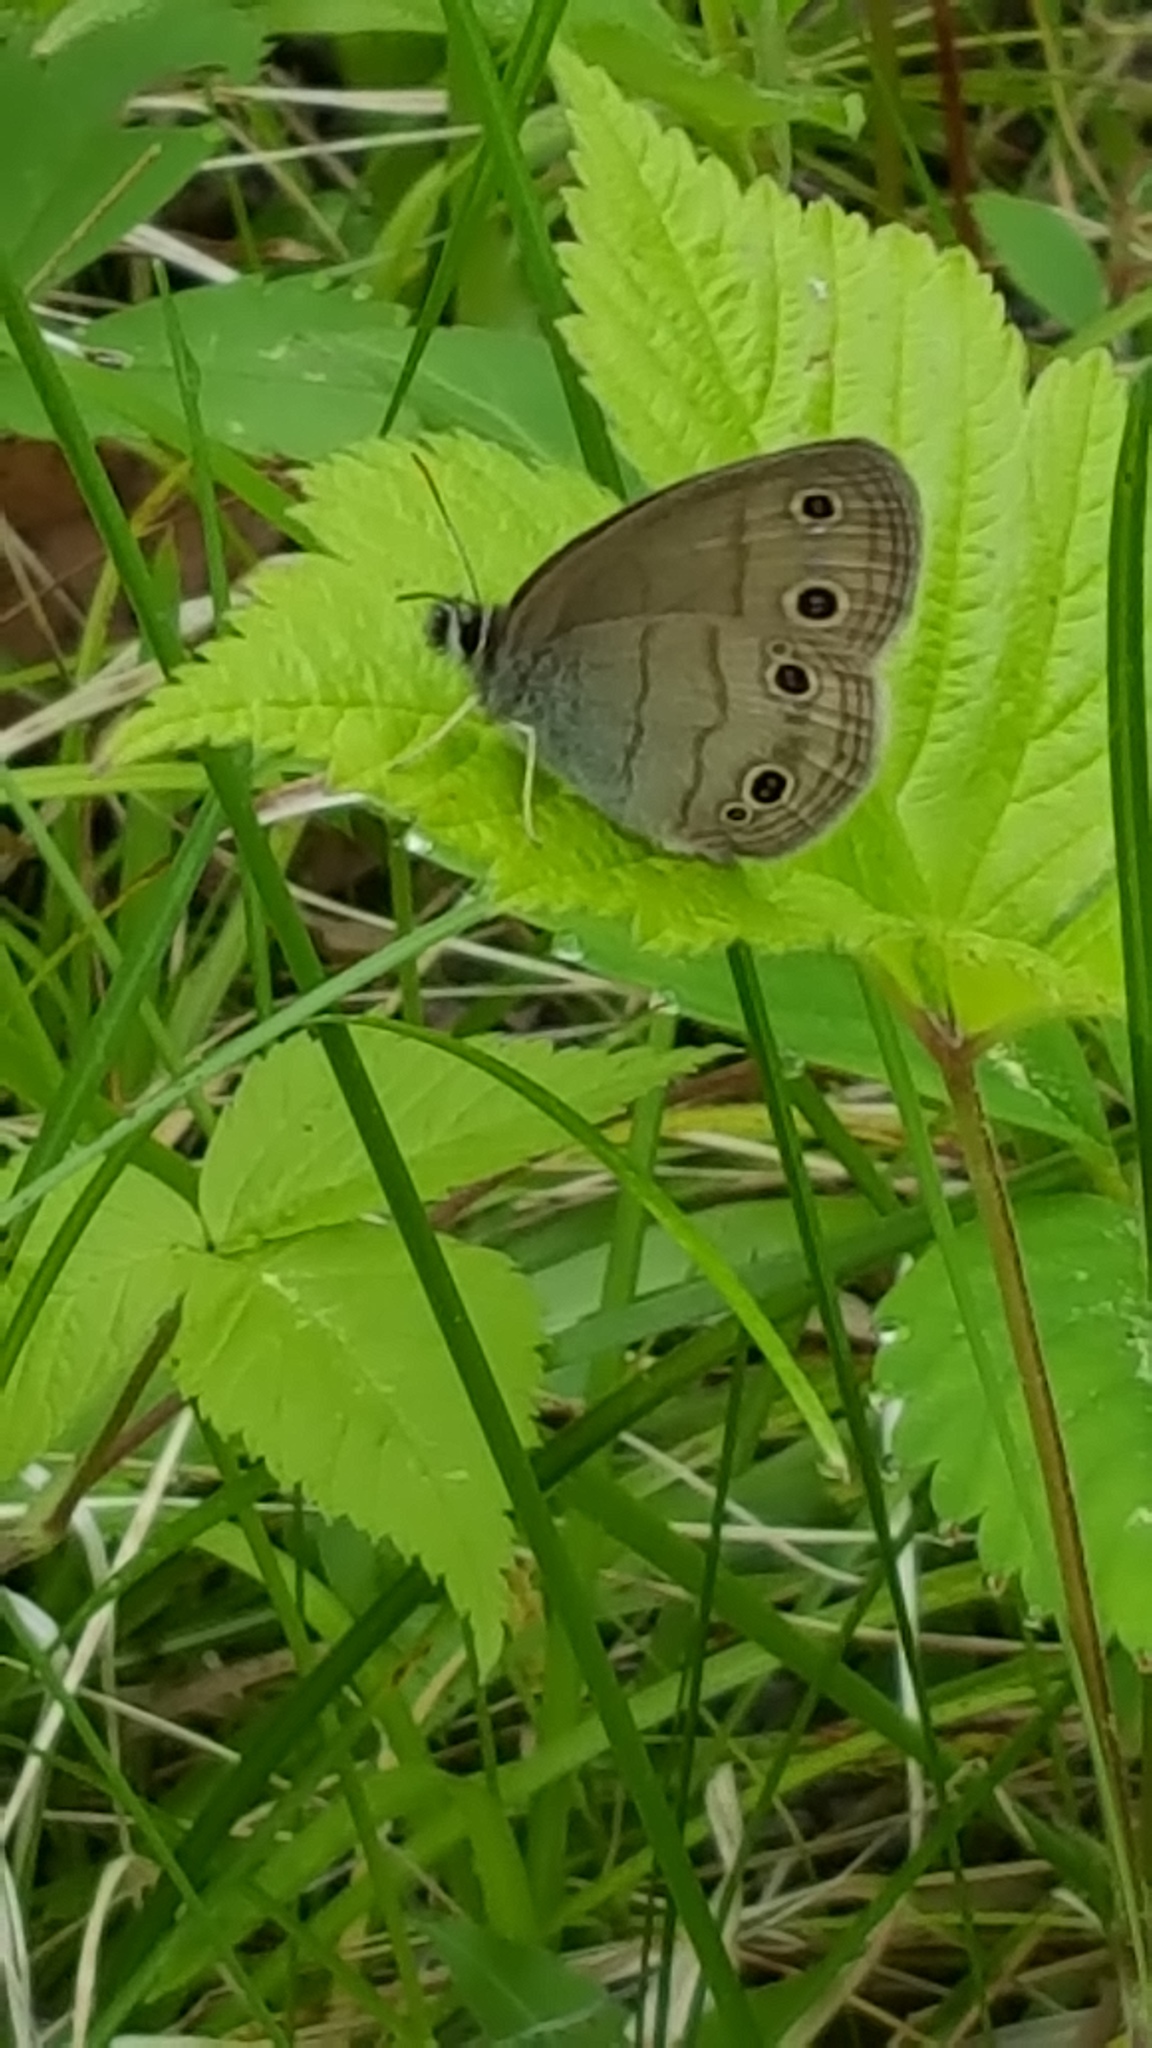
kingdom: Animalia
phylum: Arthropoda
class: Insecta
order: Lepidoptera
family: Nymphalidae
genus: Euptychia
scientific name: Euptychia cymela
